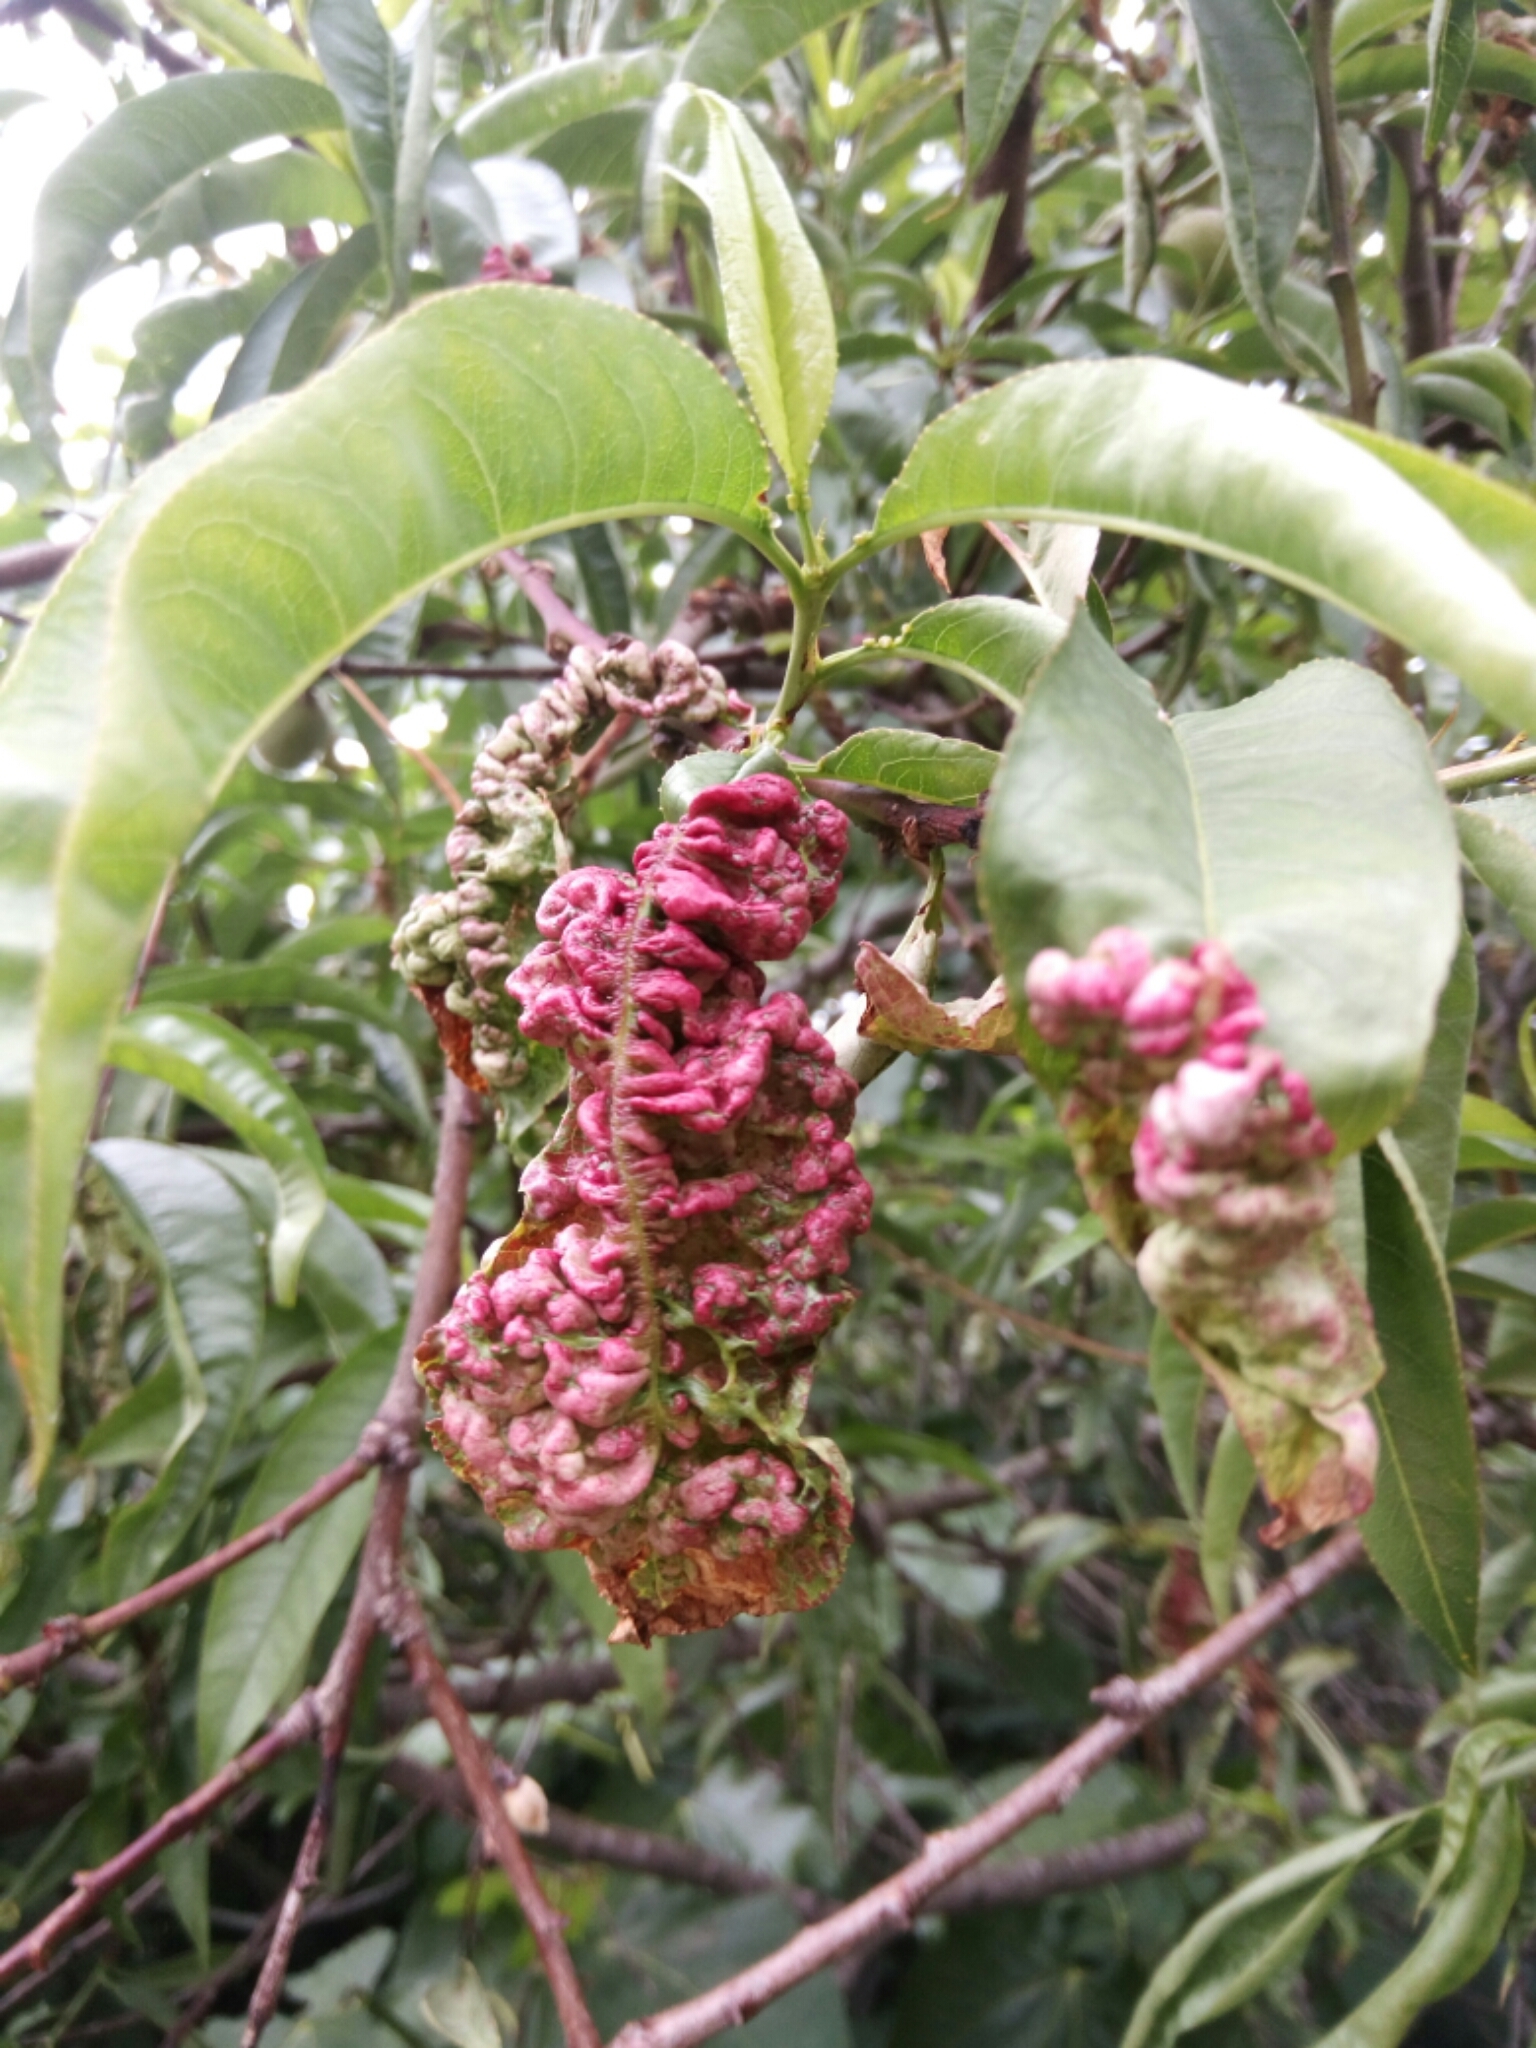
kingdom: Fungi
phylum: Ascomycota
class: Taphrinomycetes
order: Taphrinales
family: Taphrinaceae
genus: Taphrina
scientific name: Taphrina deformans
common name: Peach leaf curl
